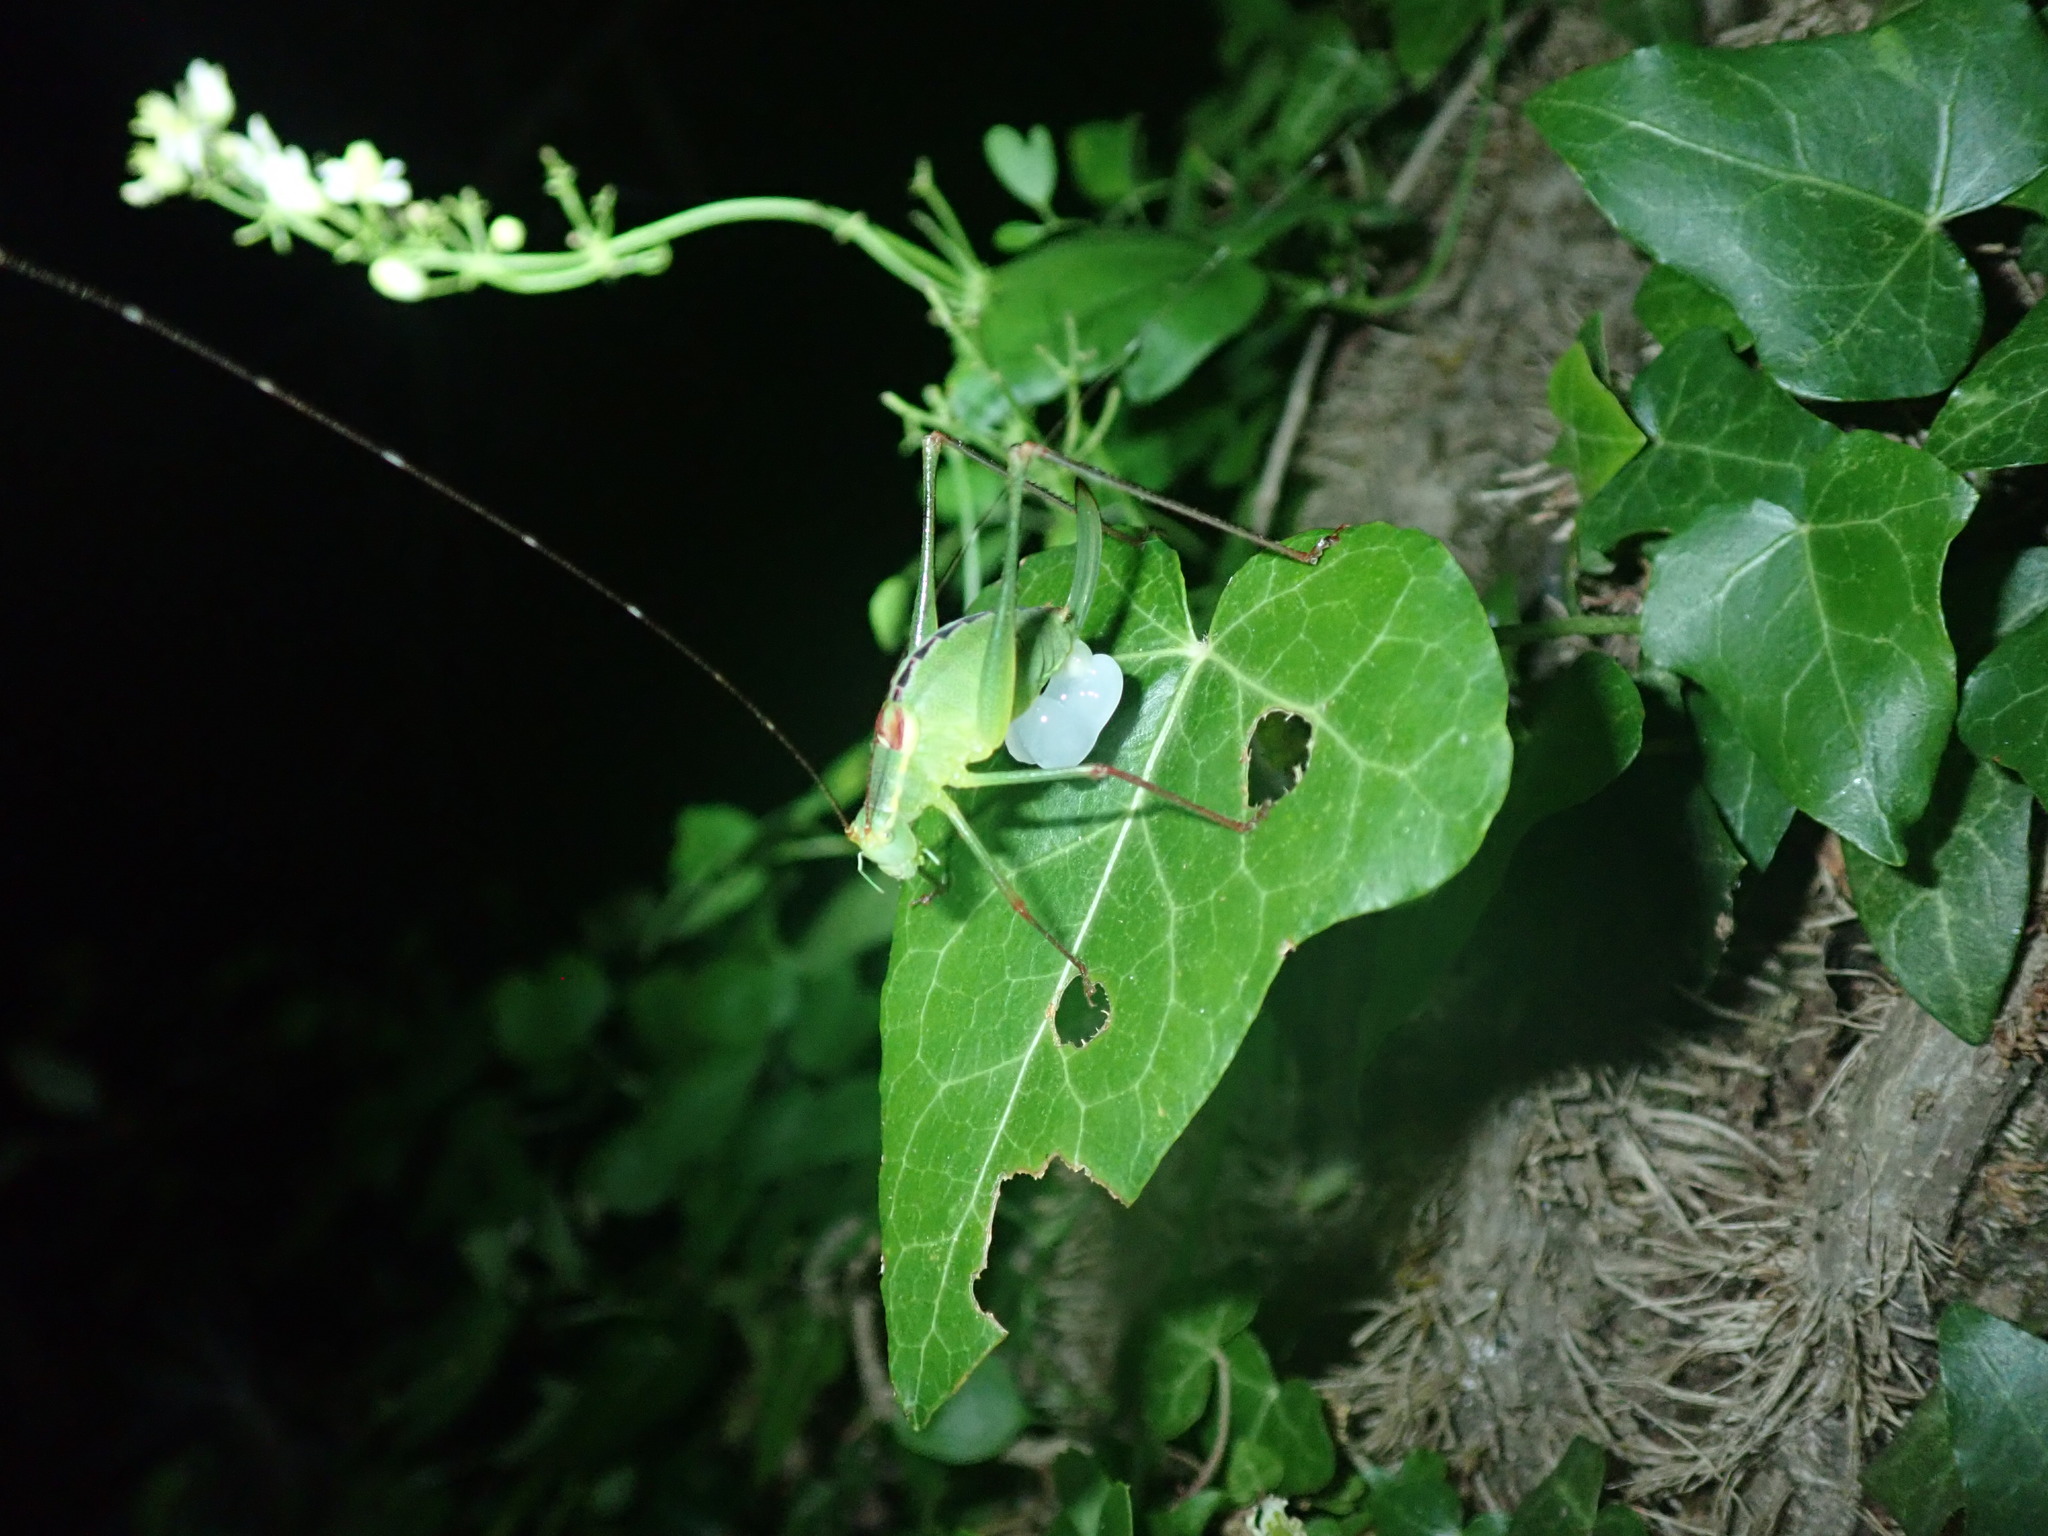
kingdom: Animalia
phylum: Arthropoda
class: Insecta
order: Orthoptera
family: Tettigoniidae
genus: Leptophyes
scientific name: Leptophyes laticauda
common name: Long-tailed speckled bush-cricket
